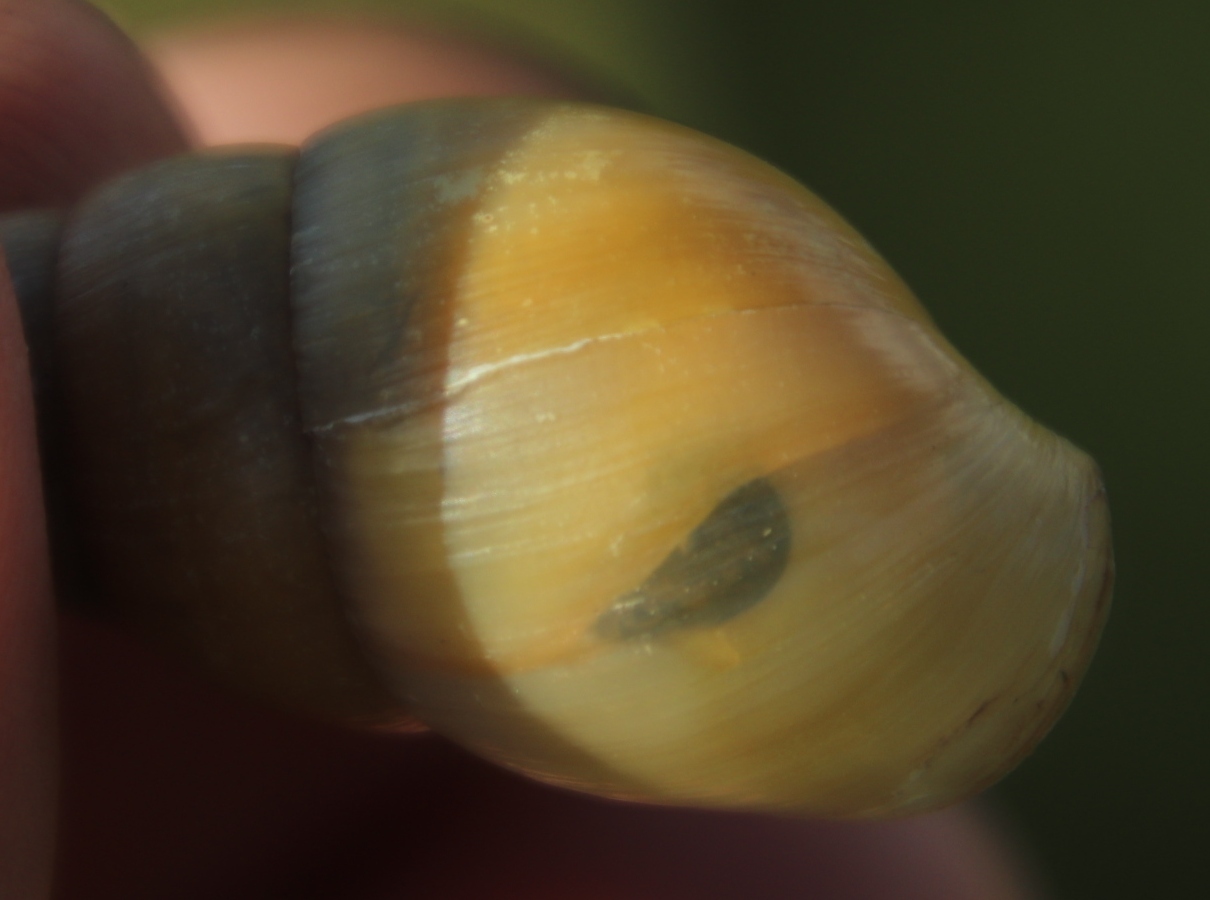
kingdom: Animalia
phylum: Mollusca
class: Gastropoda
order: Stylommatophora
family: Achatinidae
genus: Cochlitoma
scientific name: Cochlitoma transvaalensis
